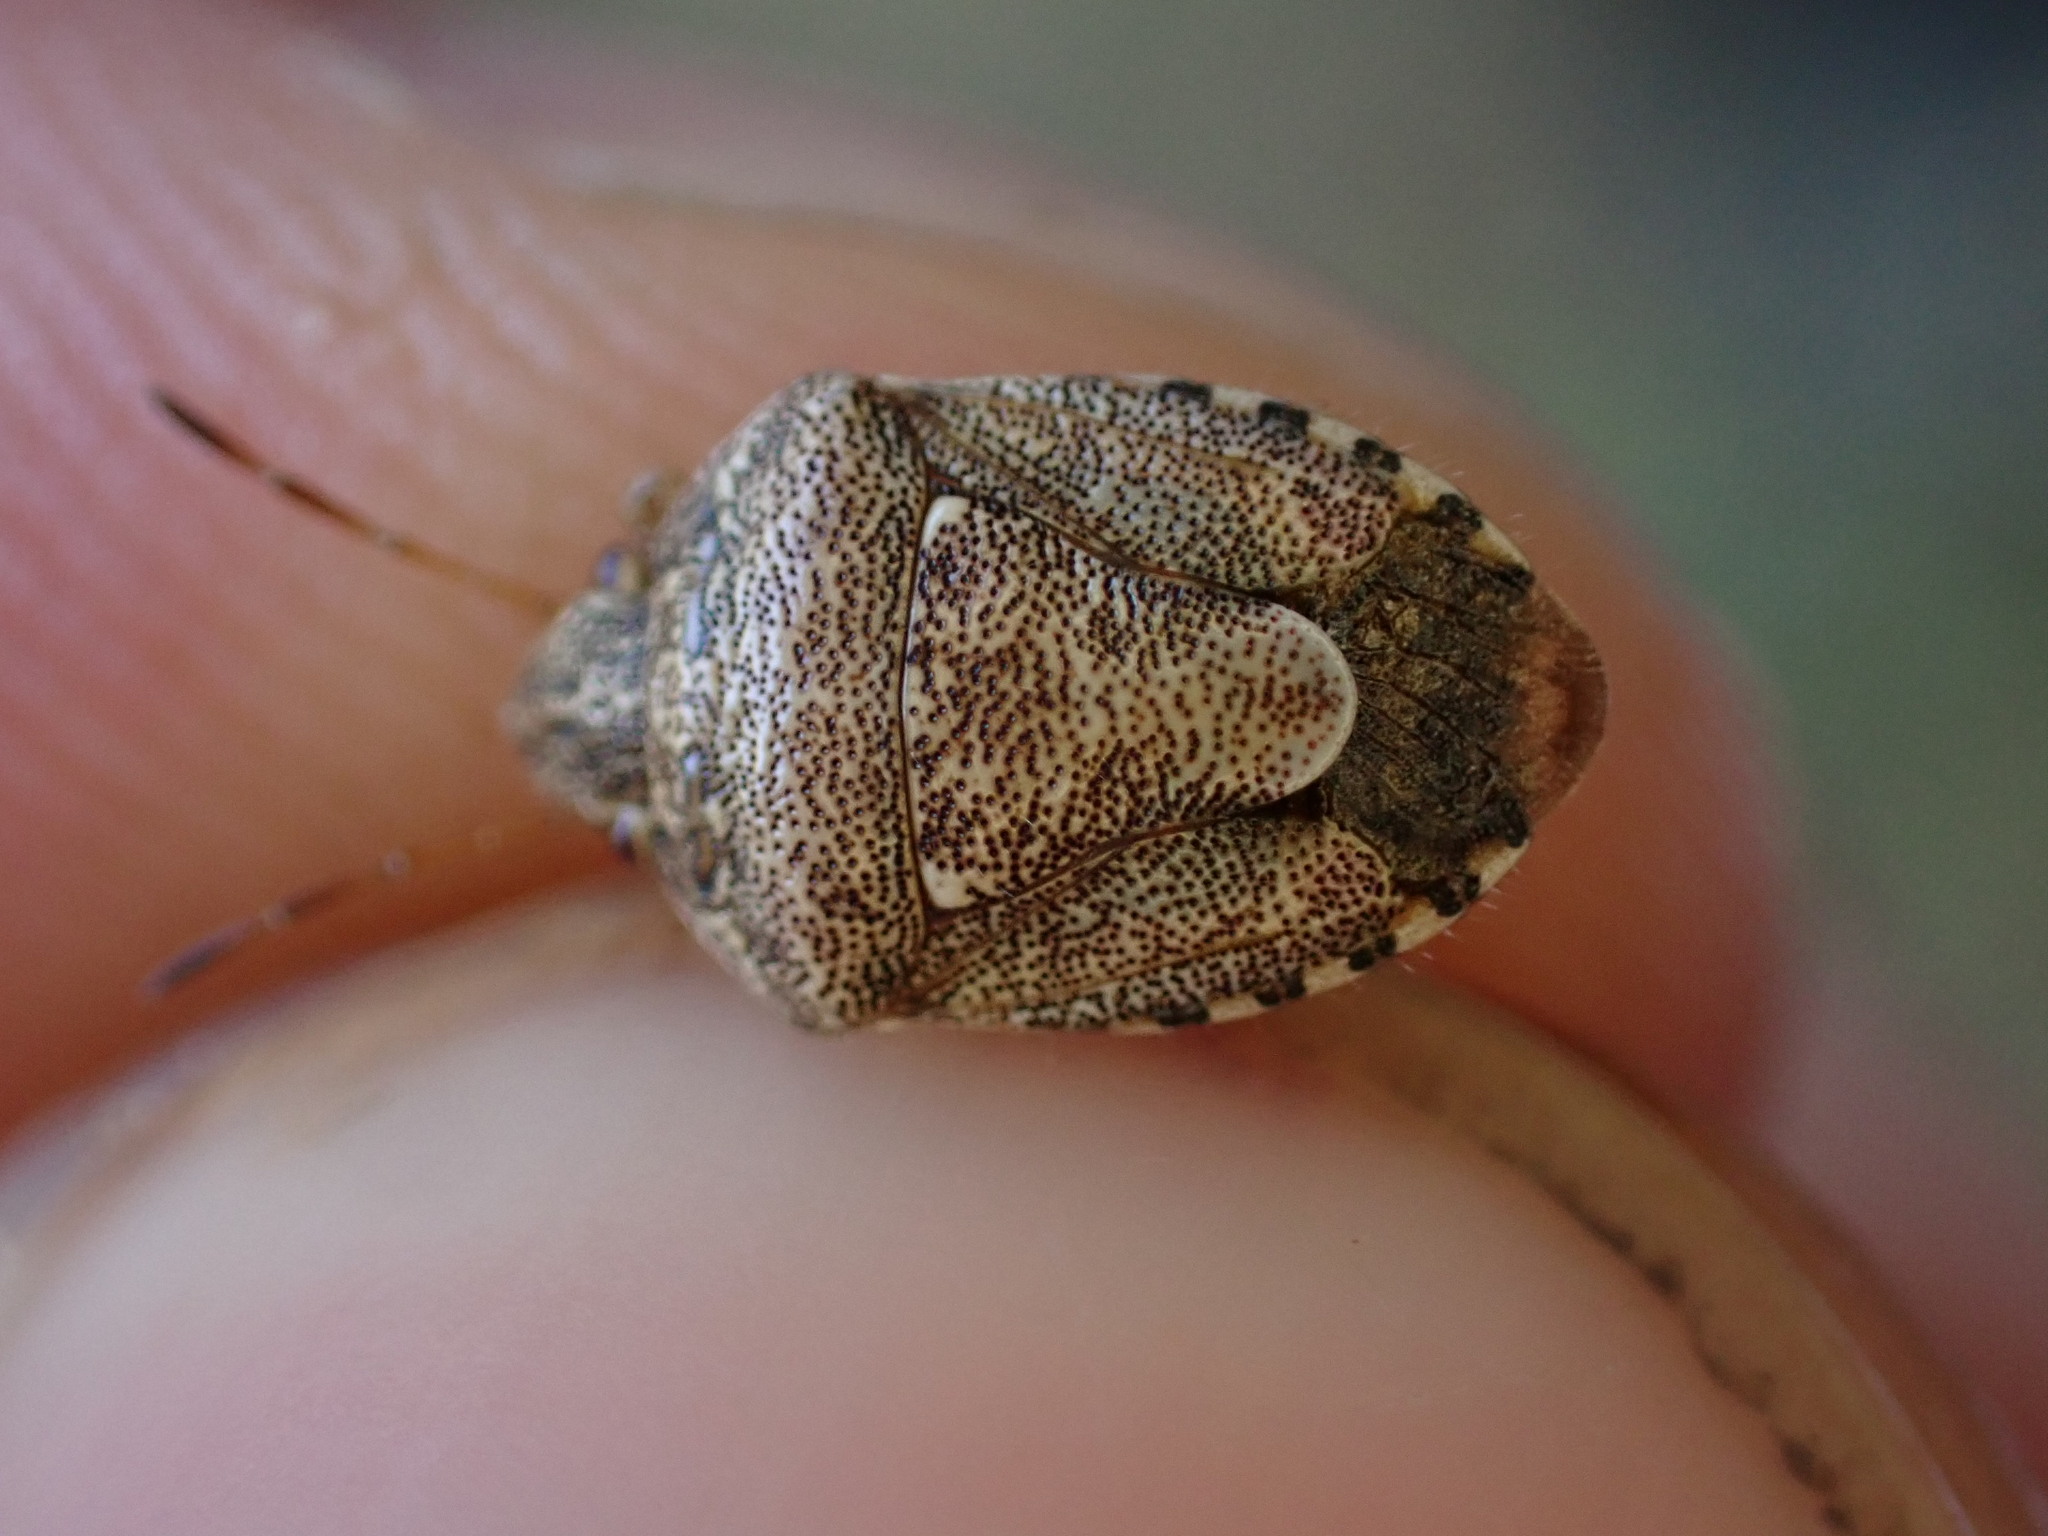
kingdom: Animalia
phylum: Arthropoda
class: Insecta
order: Hemiptera
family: Pentatomidae
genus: Staria
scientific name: Staria lunata
